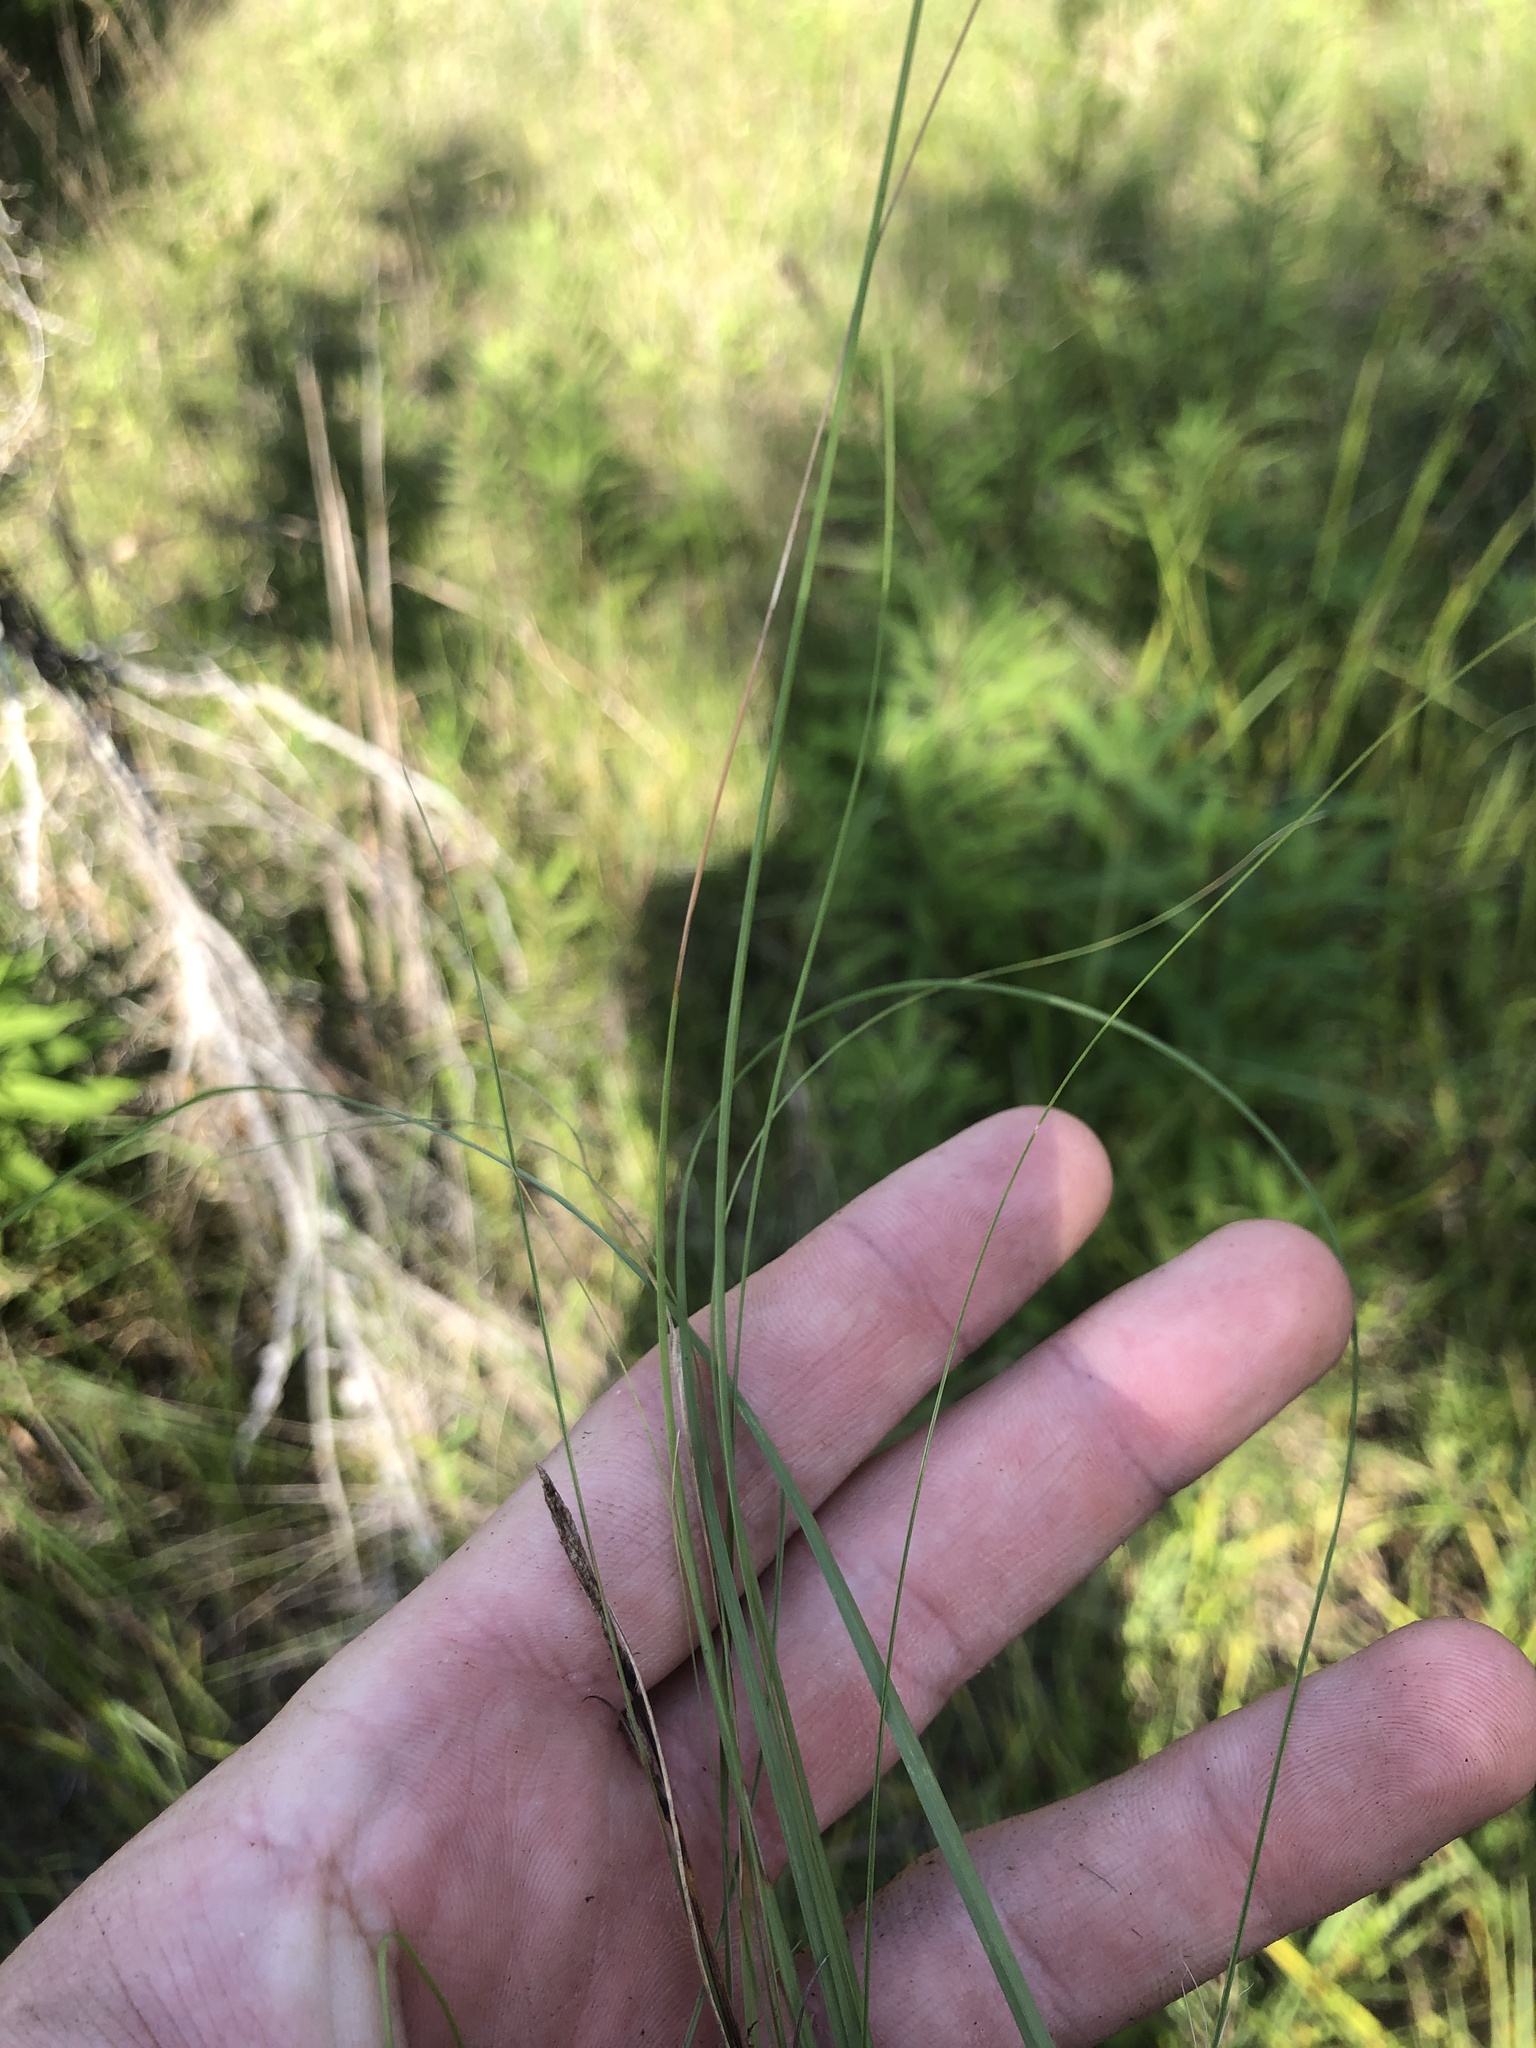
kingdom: Plantae
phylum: Tracheophyta
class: Liliopsida
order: Poales
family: Poaceae
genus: Sporobolus
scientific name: Sporobolus compositus
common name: Rough dropseed
